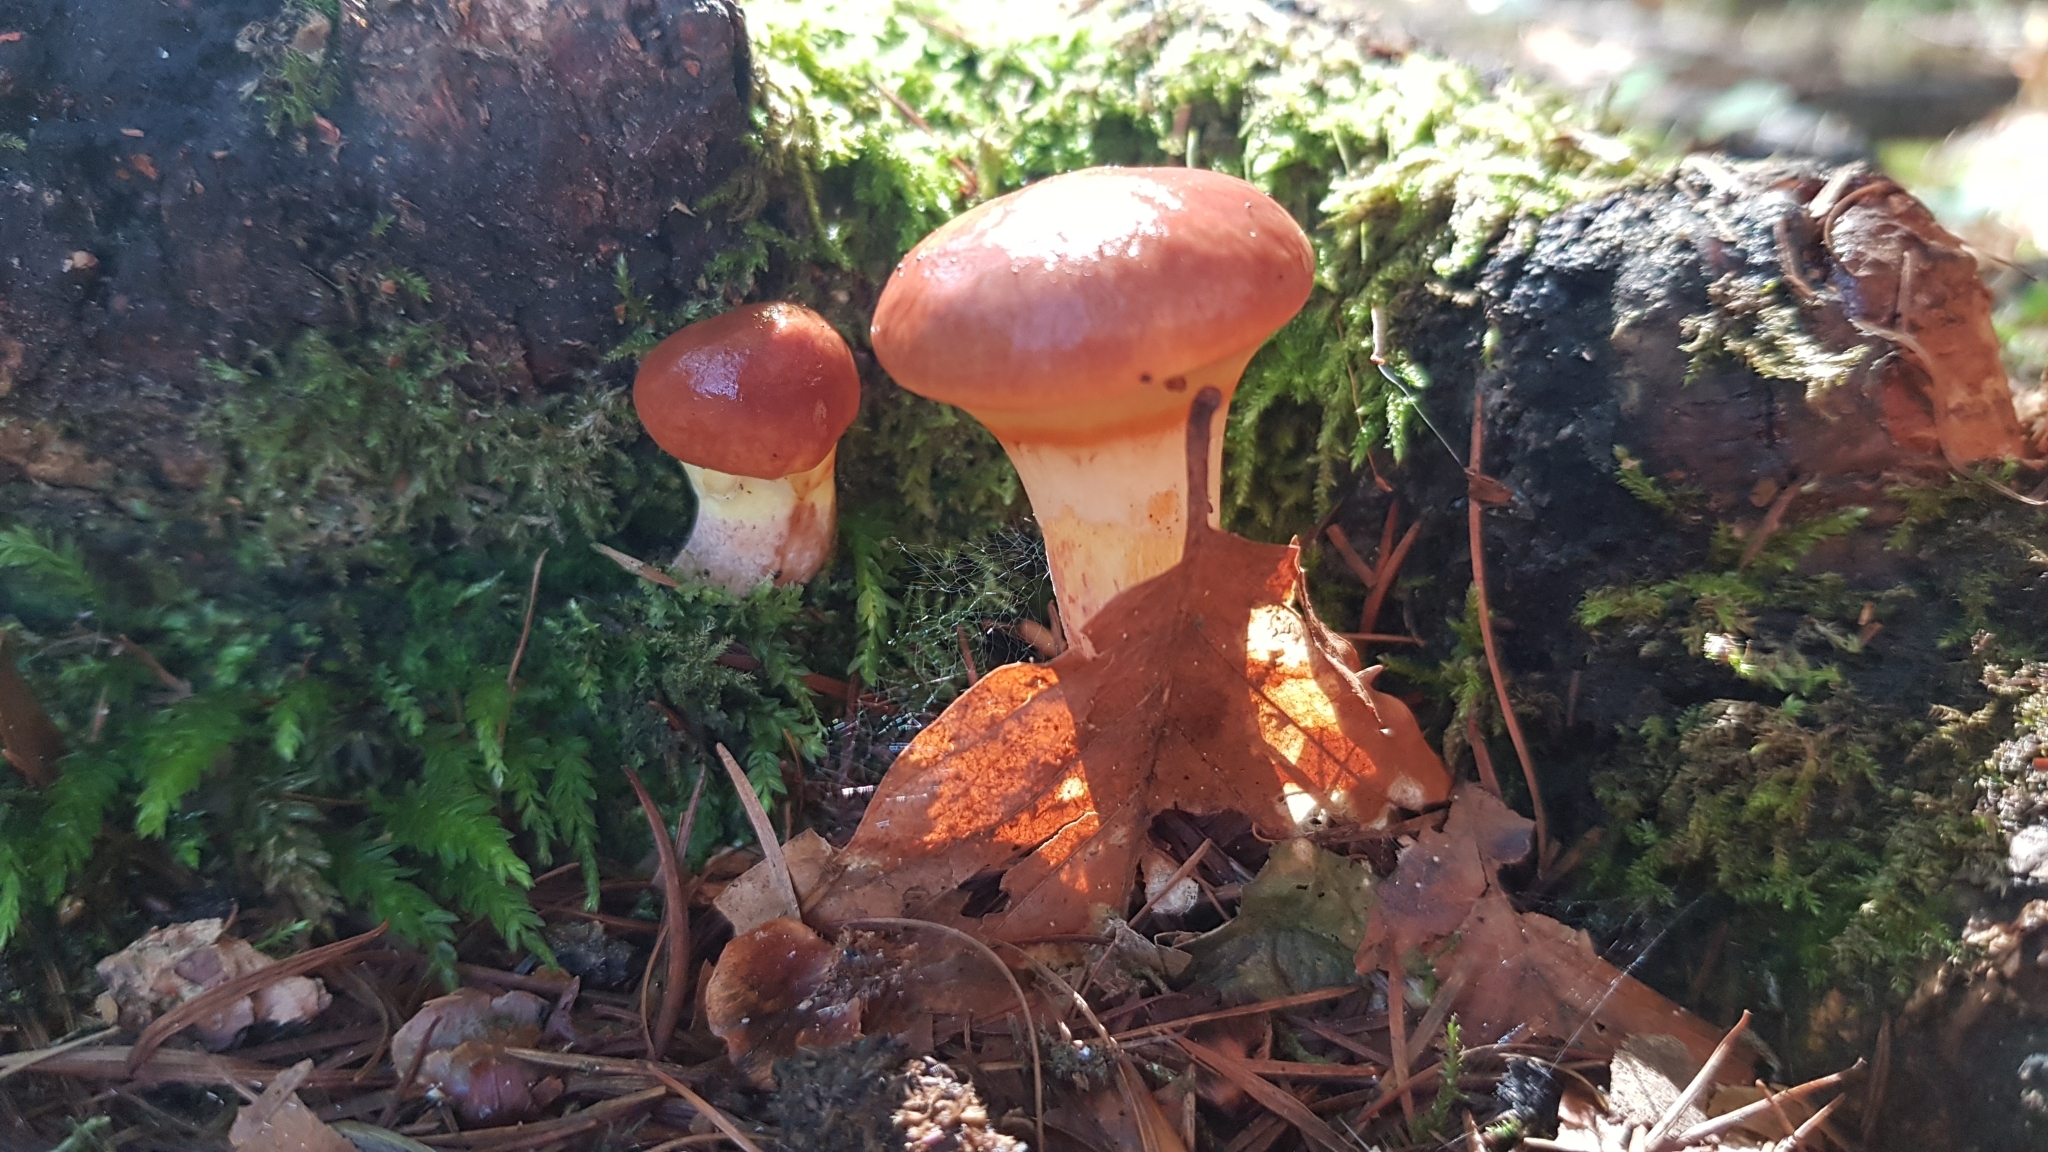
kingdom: Fungi
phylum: Basidiomycota
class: Agaricomycetes
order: Boletales
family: Suillaceae
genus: Suillus
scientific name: Suillus grevillei
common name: Larch bolete
